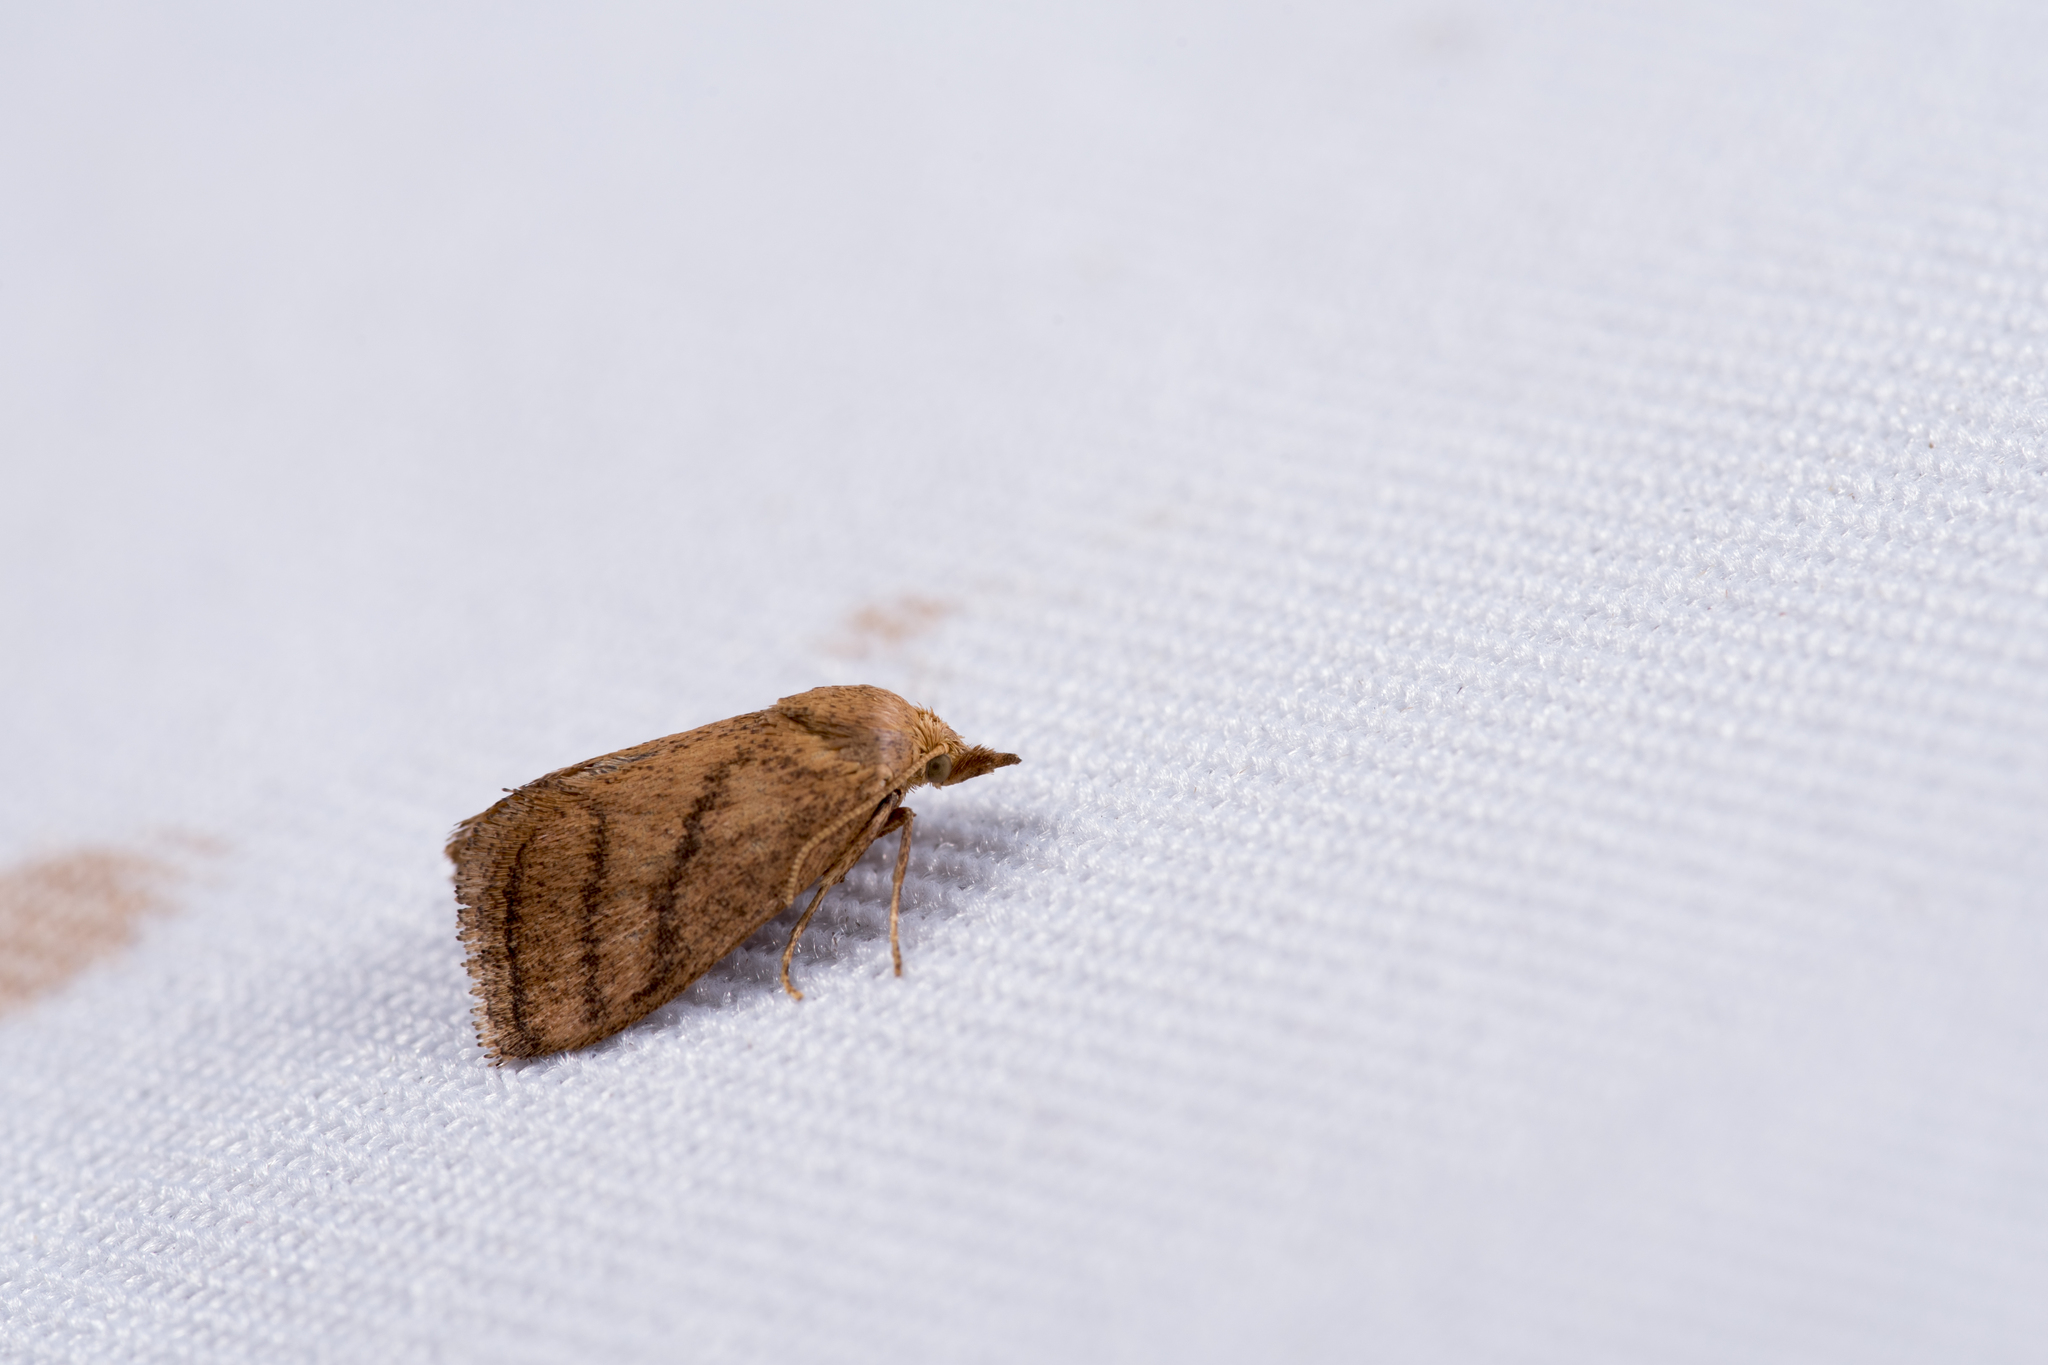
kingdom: Animalia
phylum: Arthropoda
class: Insecta
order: Lepidoptera
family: Limacodidae
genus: Ceratonema
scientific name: Ceratonema wilemani
